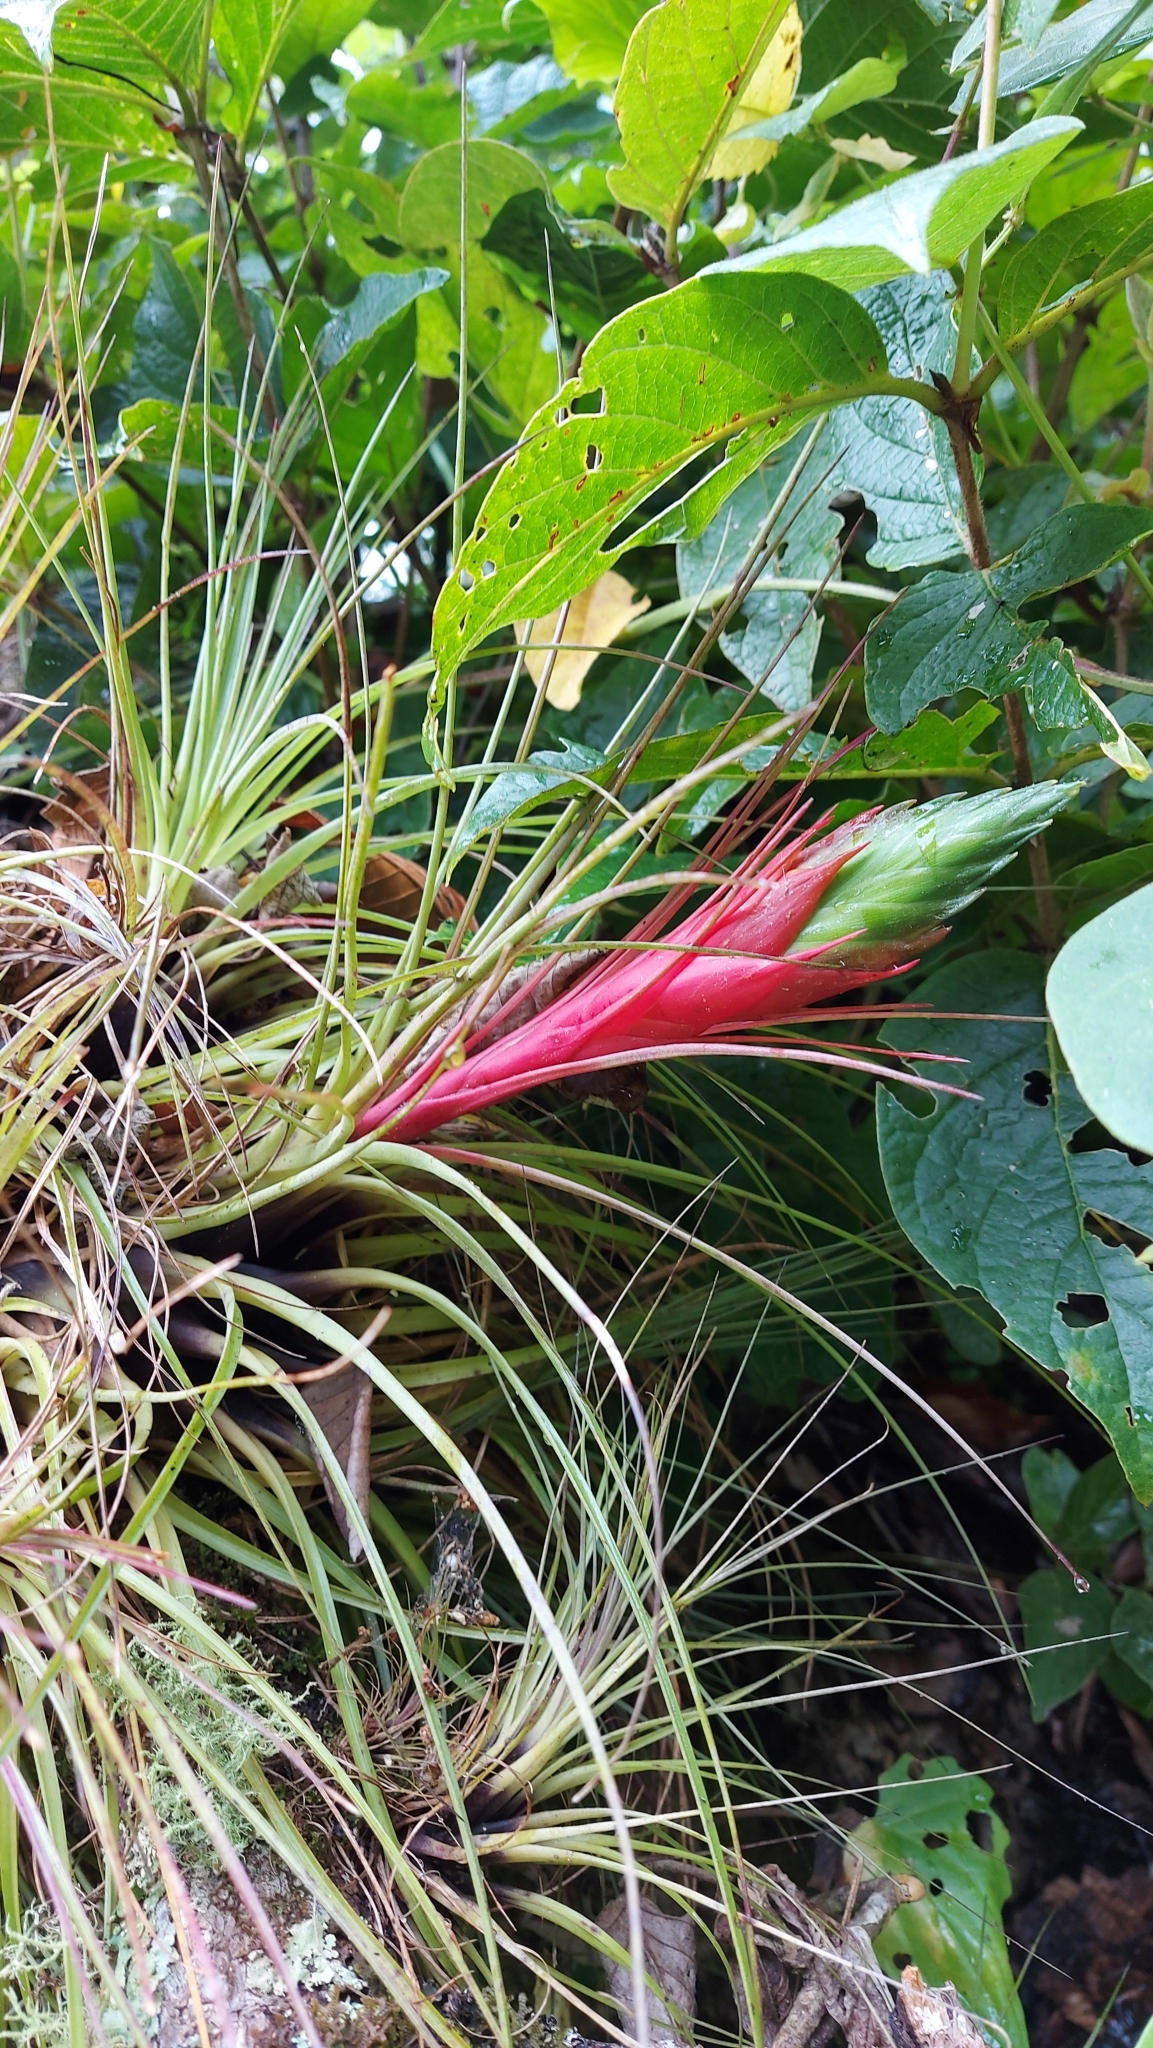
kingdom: Plantae
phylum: Tracheophyta
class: Liliopsida
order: Poales
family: Bromeliaceae
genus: Tillandsia
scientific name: Tillandsia punctulata
